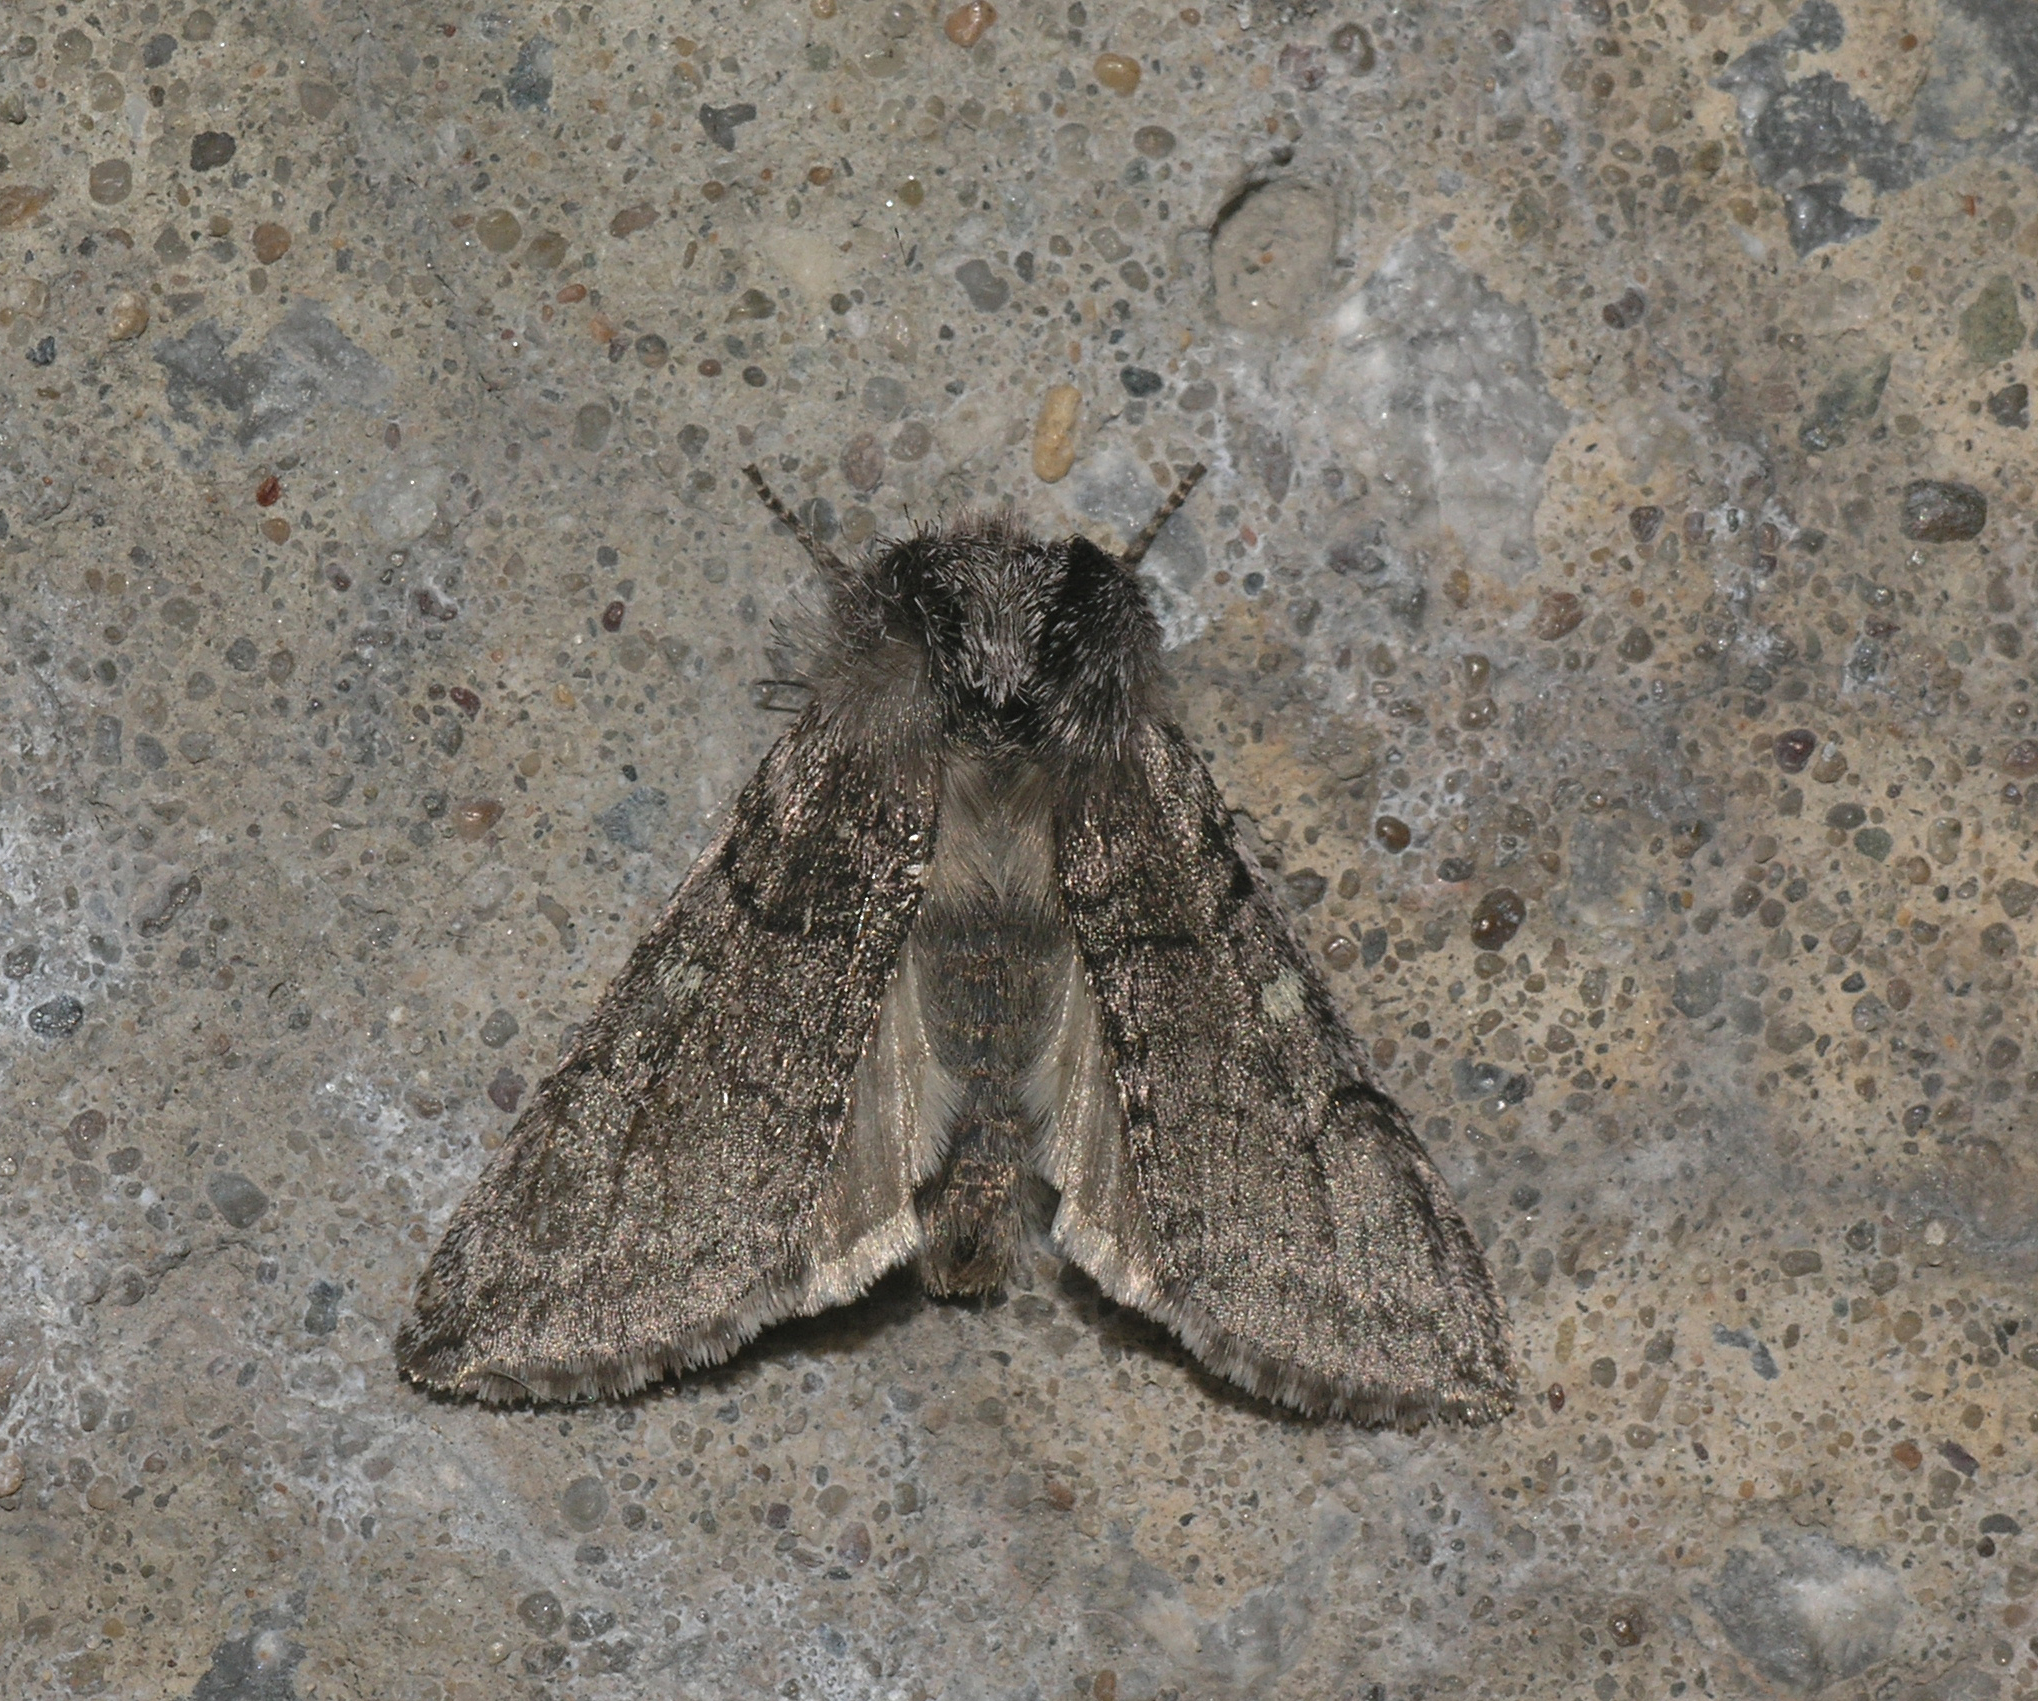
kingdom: Animalia
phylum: Arthropoda
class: Insecta
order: Lepidoptera
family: Drepanidae
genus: Achlya
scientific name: Achlya flavicornis
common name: Yellow horned
